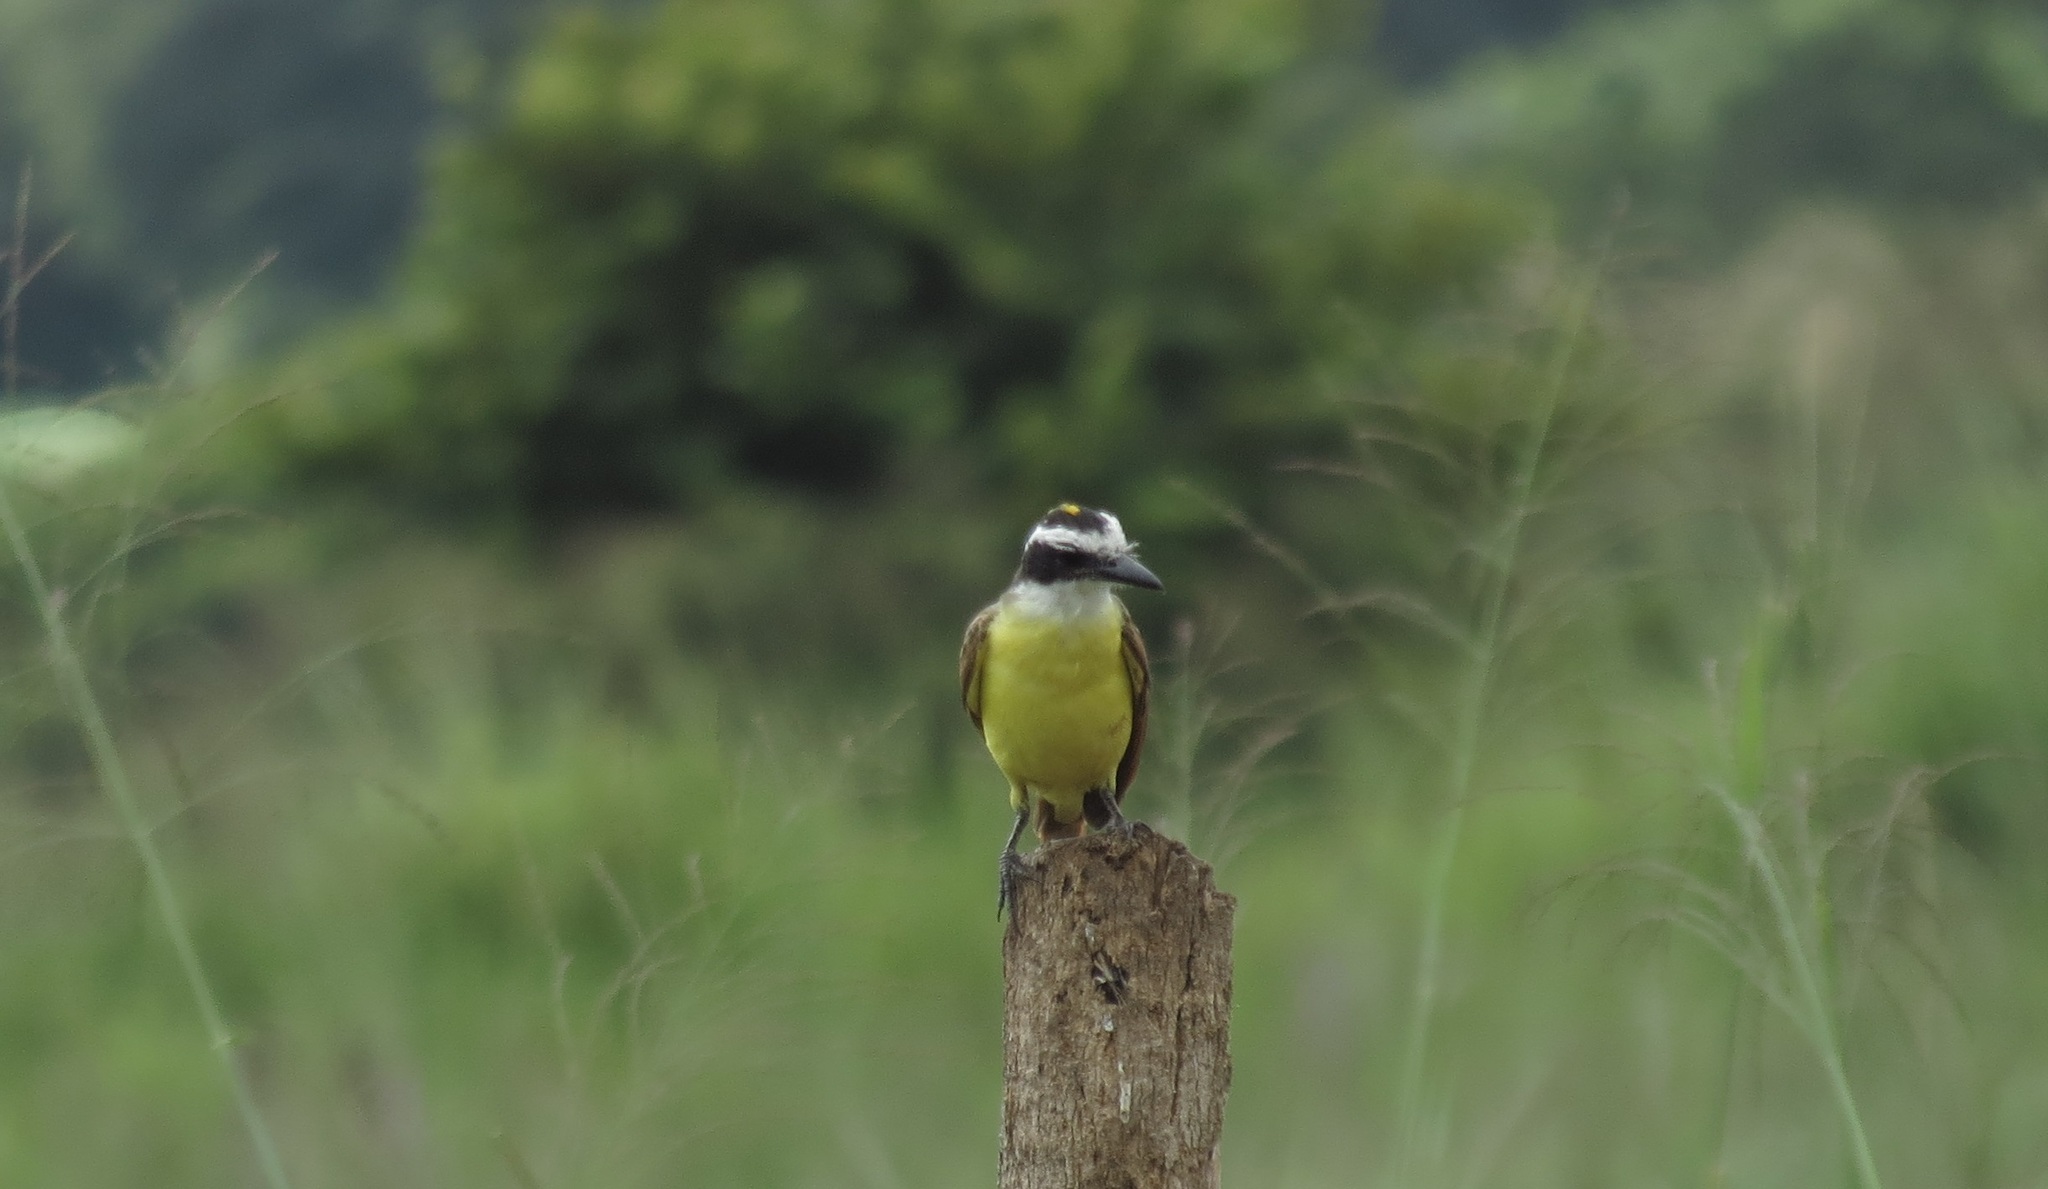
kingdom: Animalia
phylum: Chordata
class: Aves
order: Passeriformes
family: Tyrannidae
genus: Pitangus
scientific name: Pitangus sulphuratus
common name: Great kiskadee
